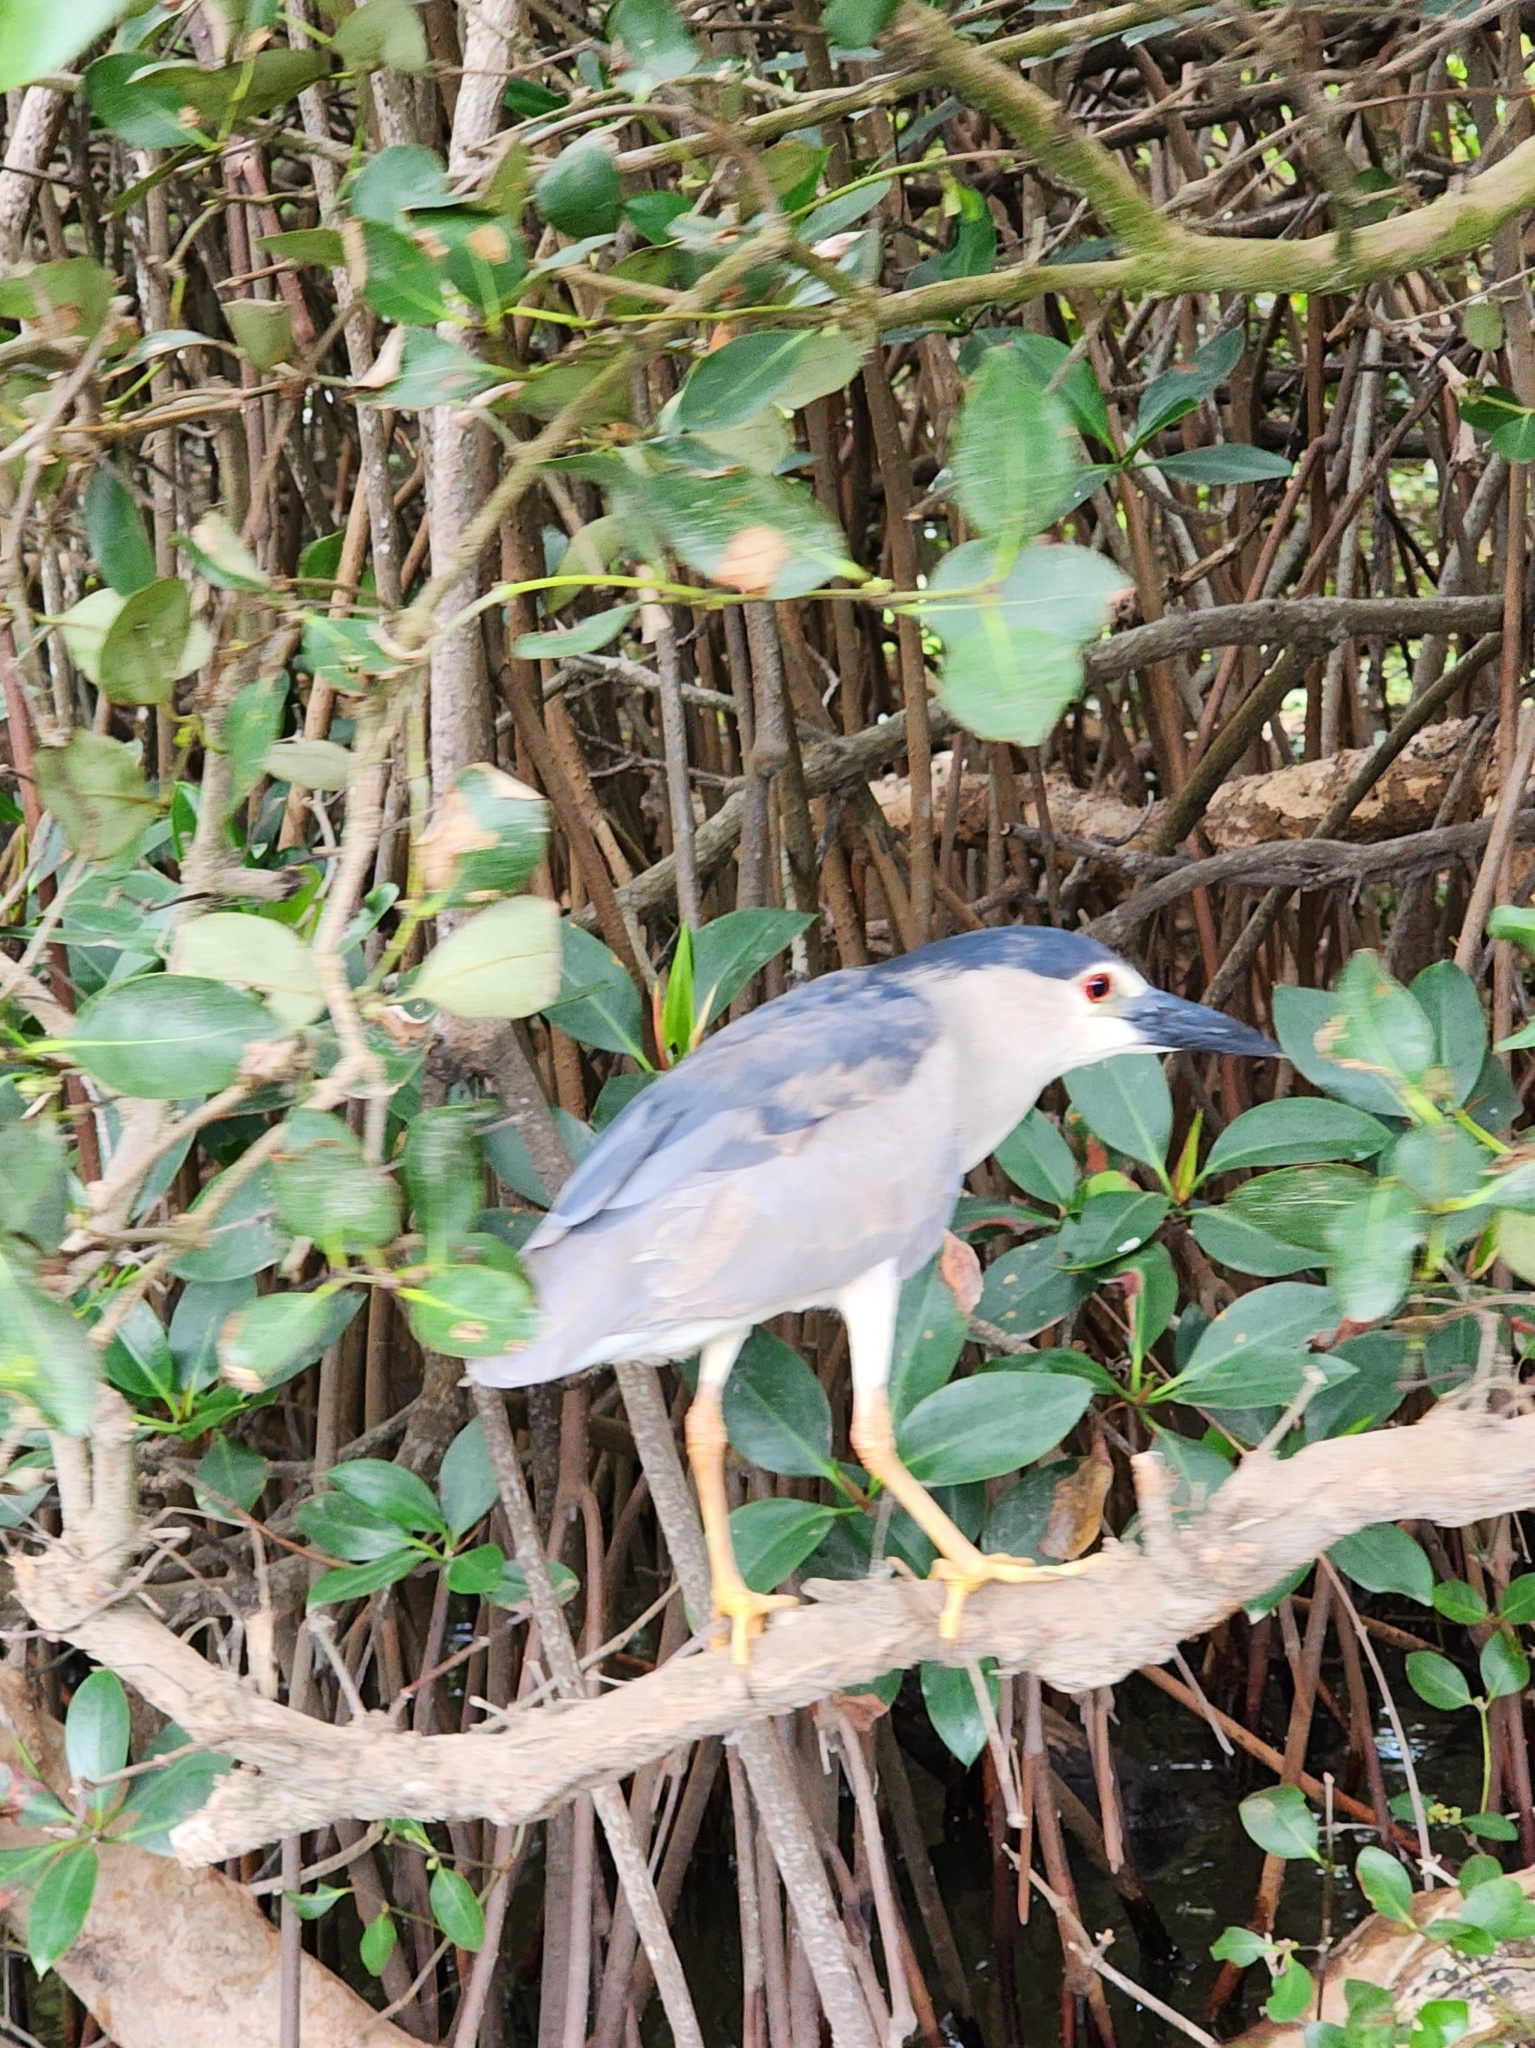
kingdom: Animalia
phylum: Chordata
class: Aves
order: Pelecaniformes
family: Ardeidae
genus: Nycticorax
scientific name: Nycticorax nycticorax
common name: Black-crowned night heron
